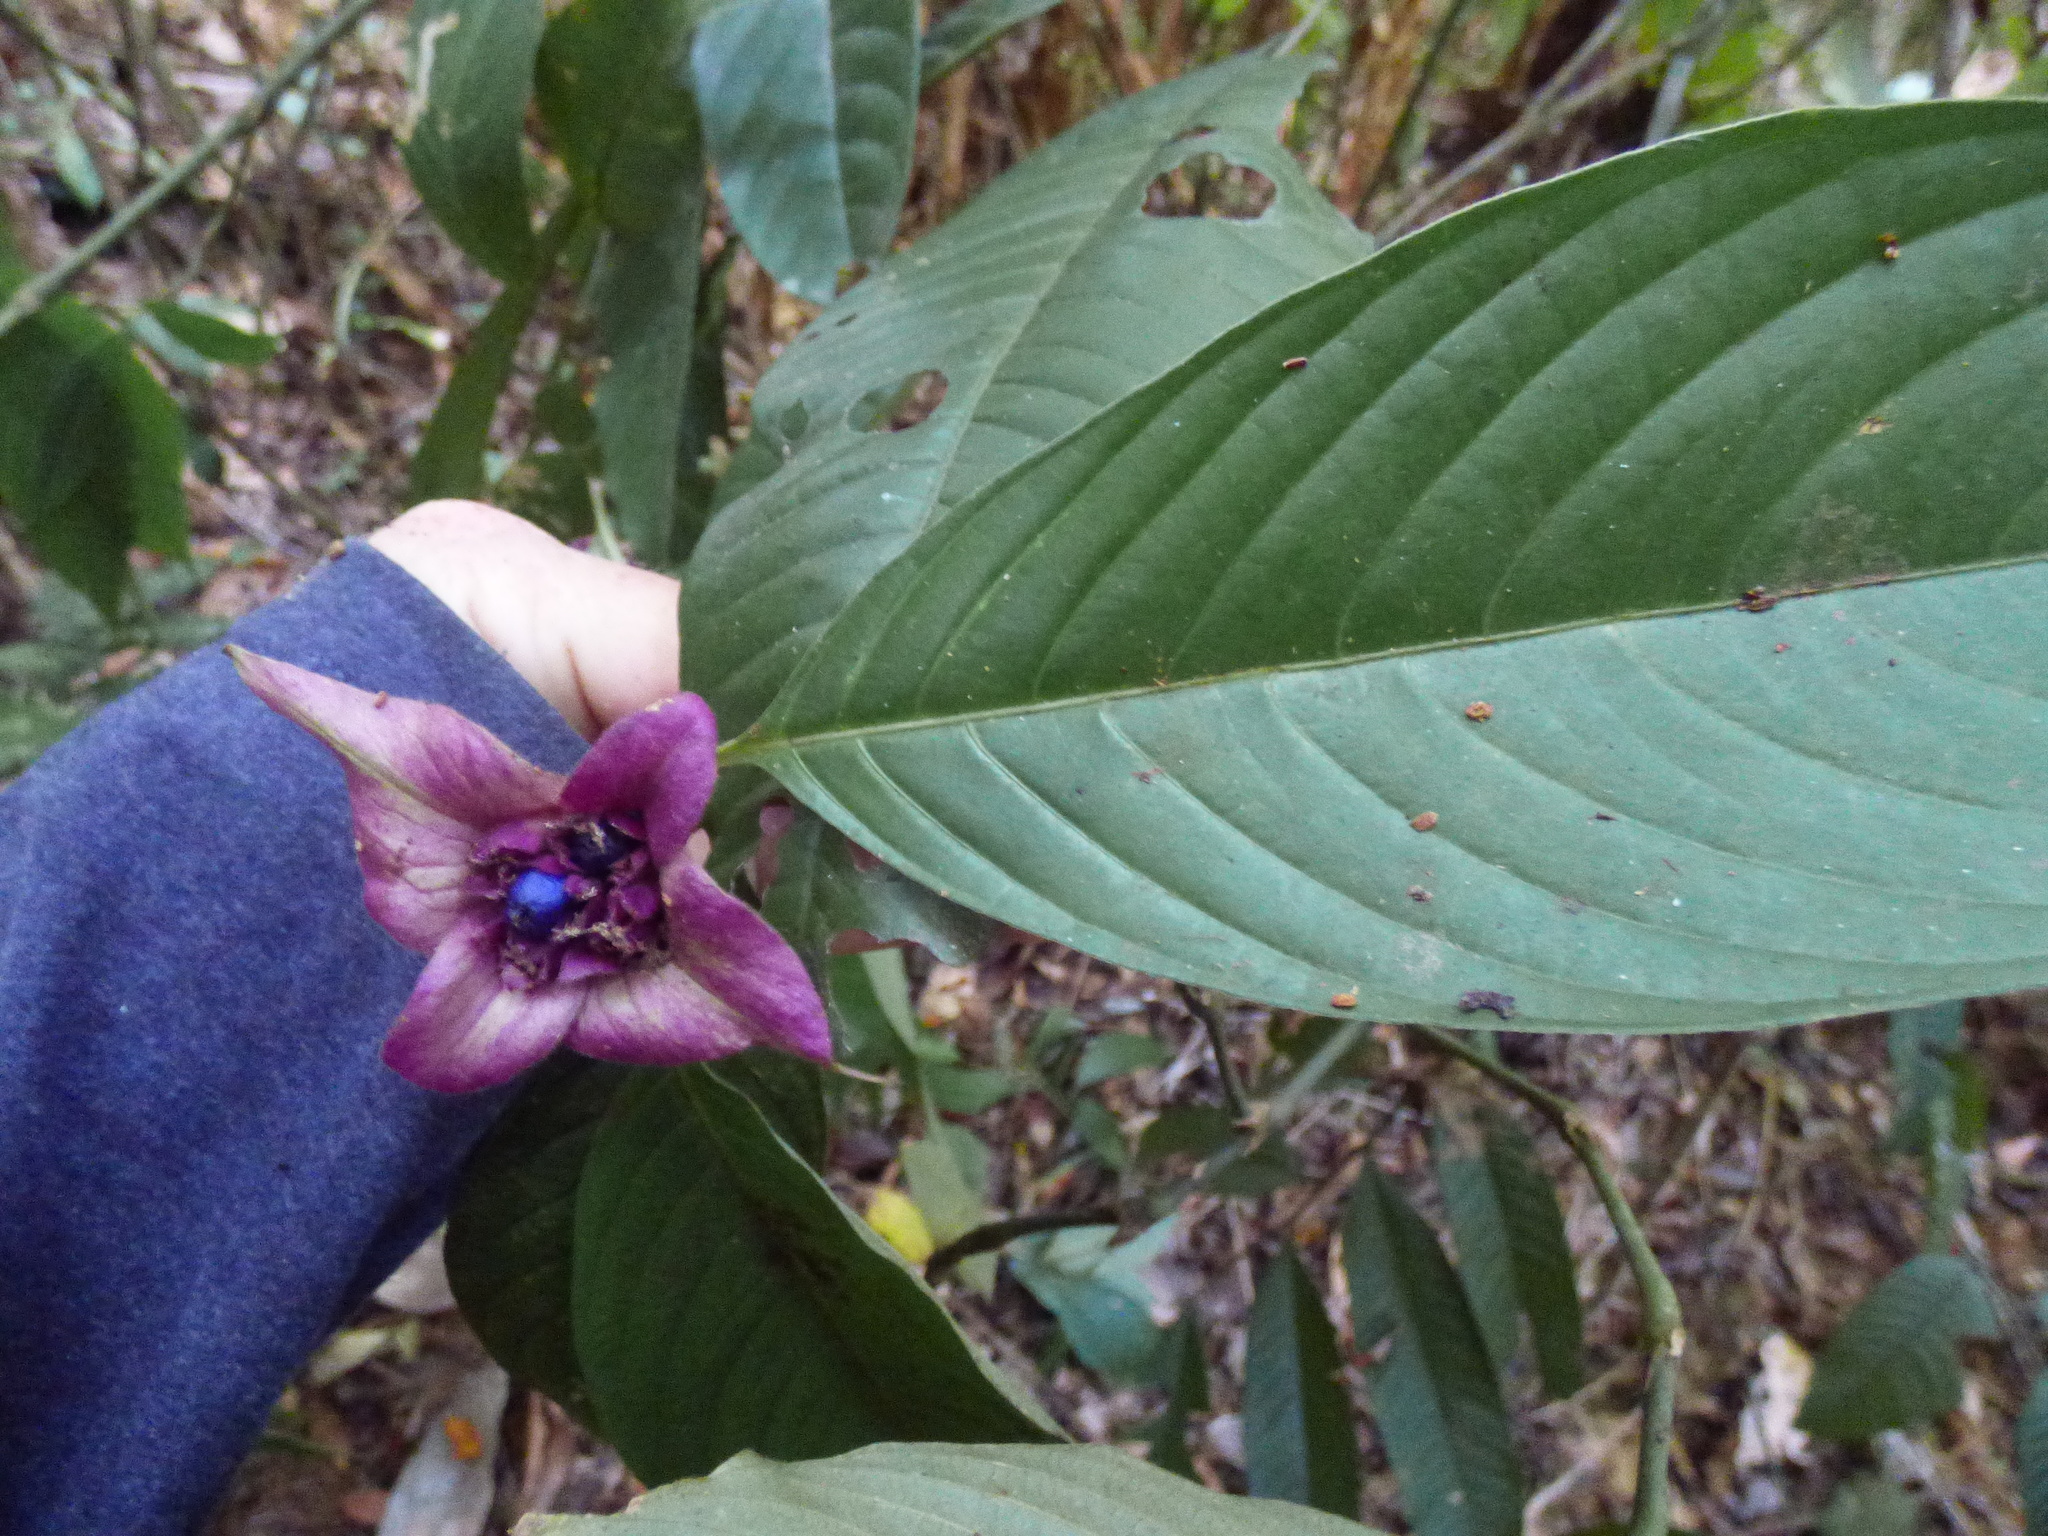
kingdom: Plantae
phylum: Tracheophyta
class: Magnoliopsida
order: Gentianales
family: Rubiaceae
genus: Palicourea
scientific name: Palicourea colorata
